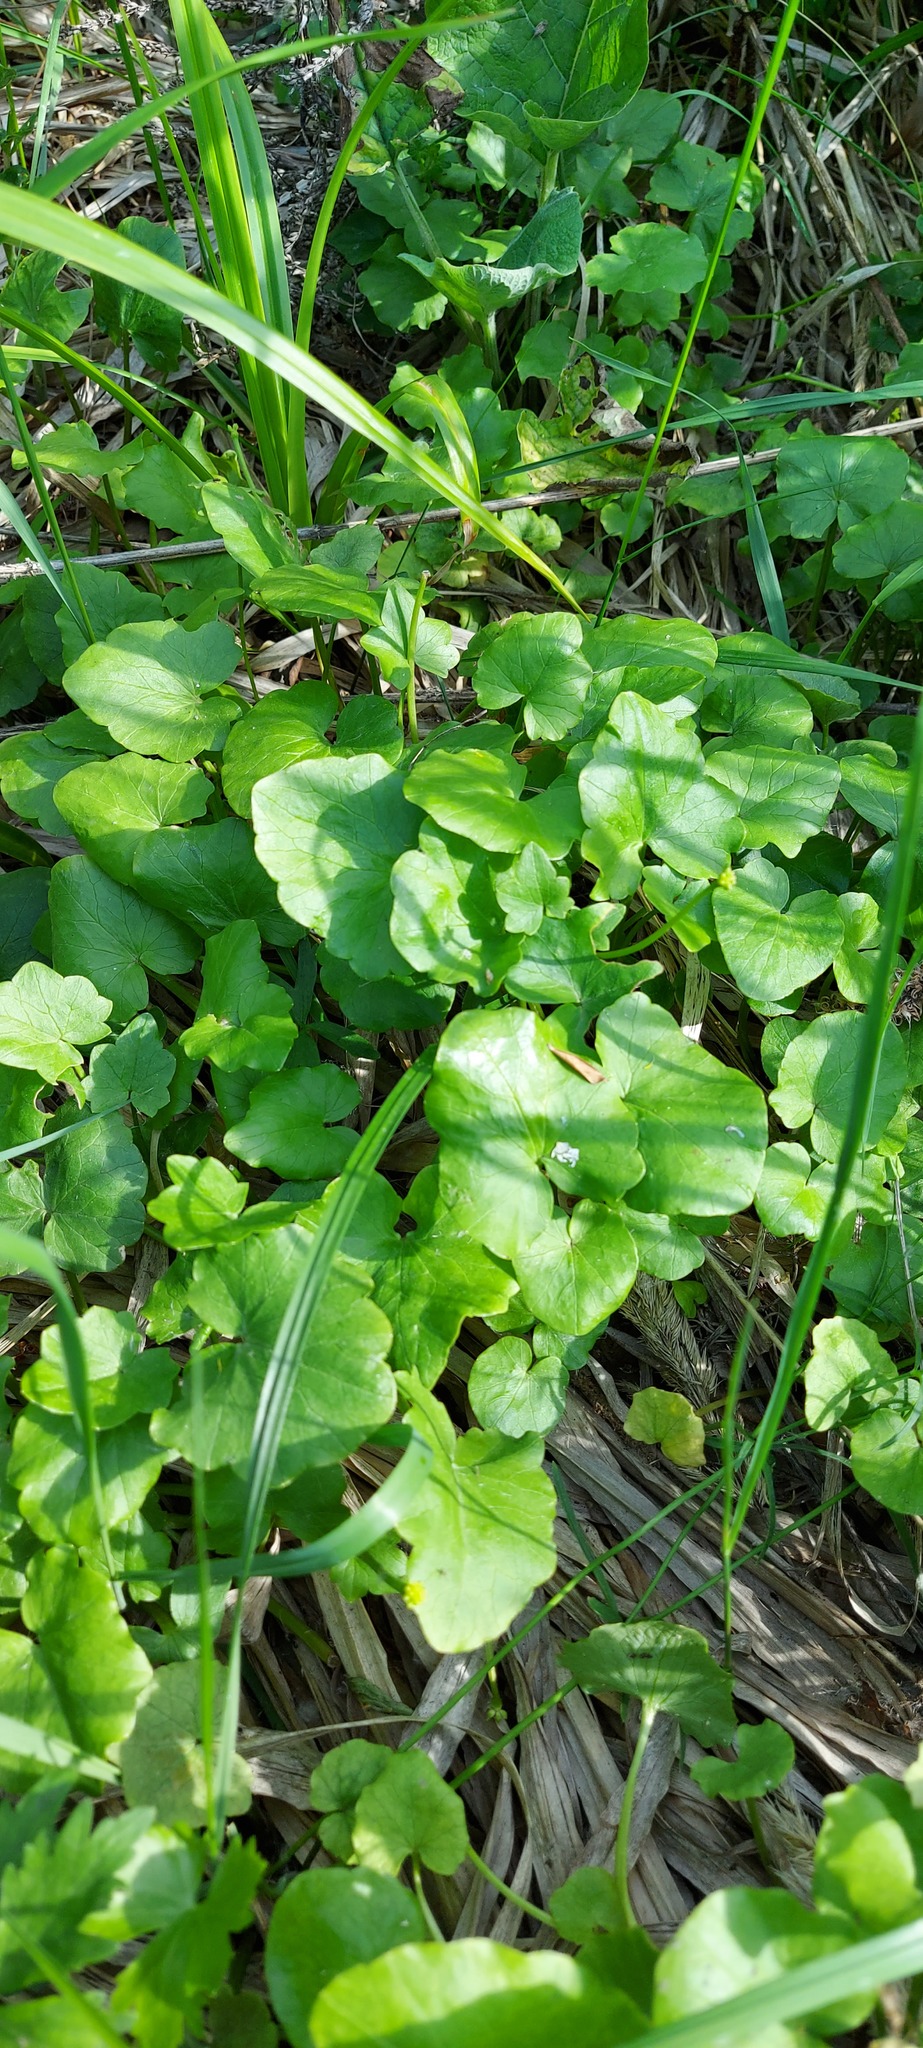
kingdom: Plantae
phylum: Tracheophyta
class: Magnoliopsida
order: Ranunculales
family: Ranunculaceae
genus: Ficaria
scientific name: Ficaria verna
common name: Lesser celandine
